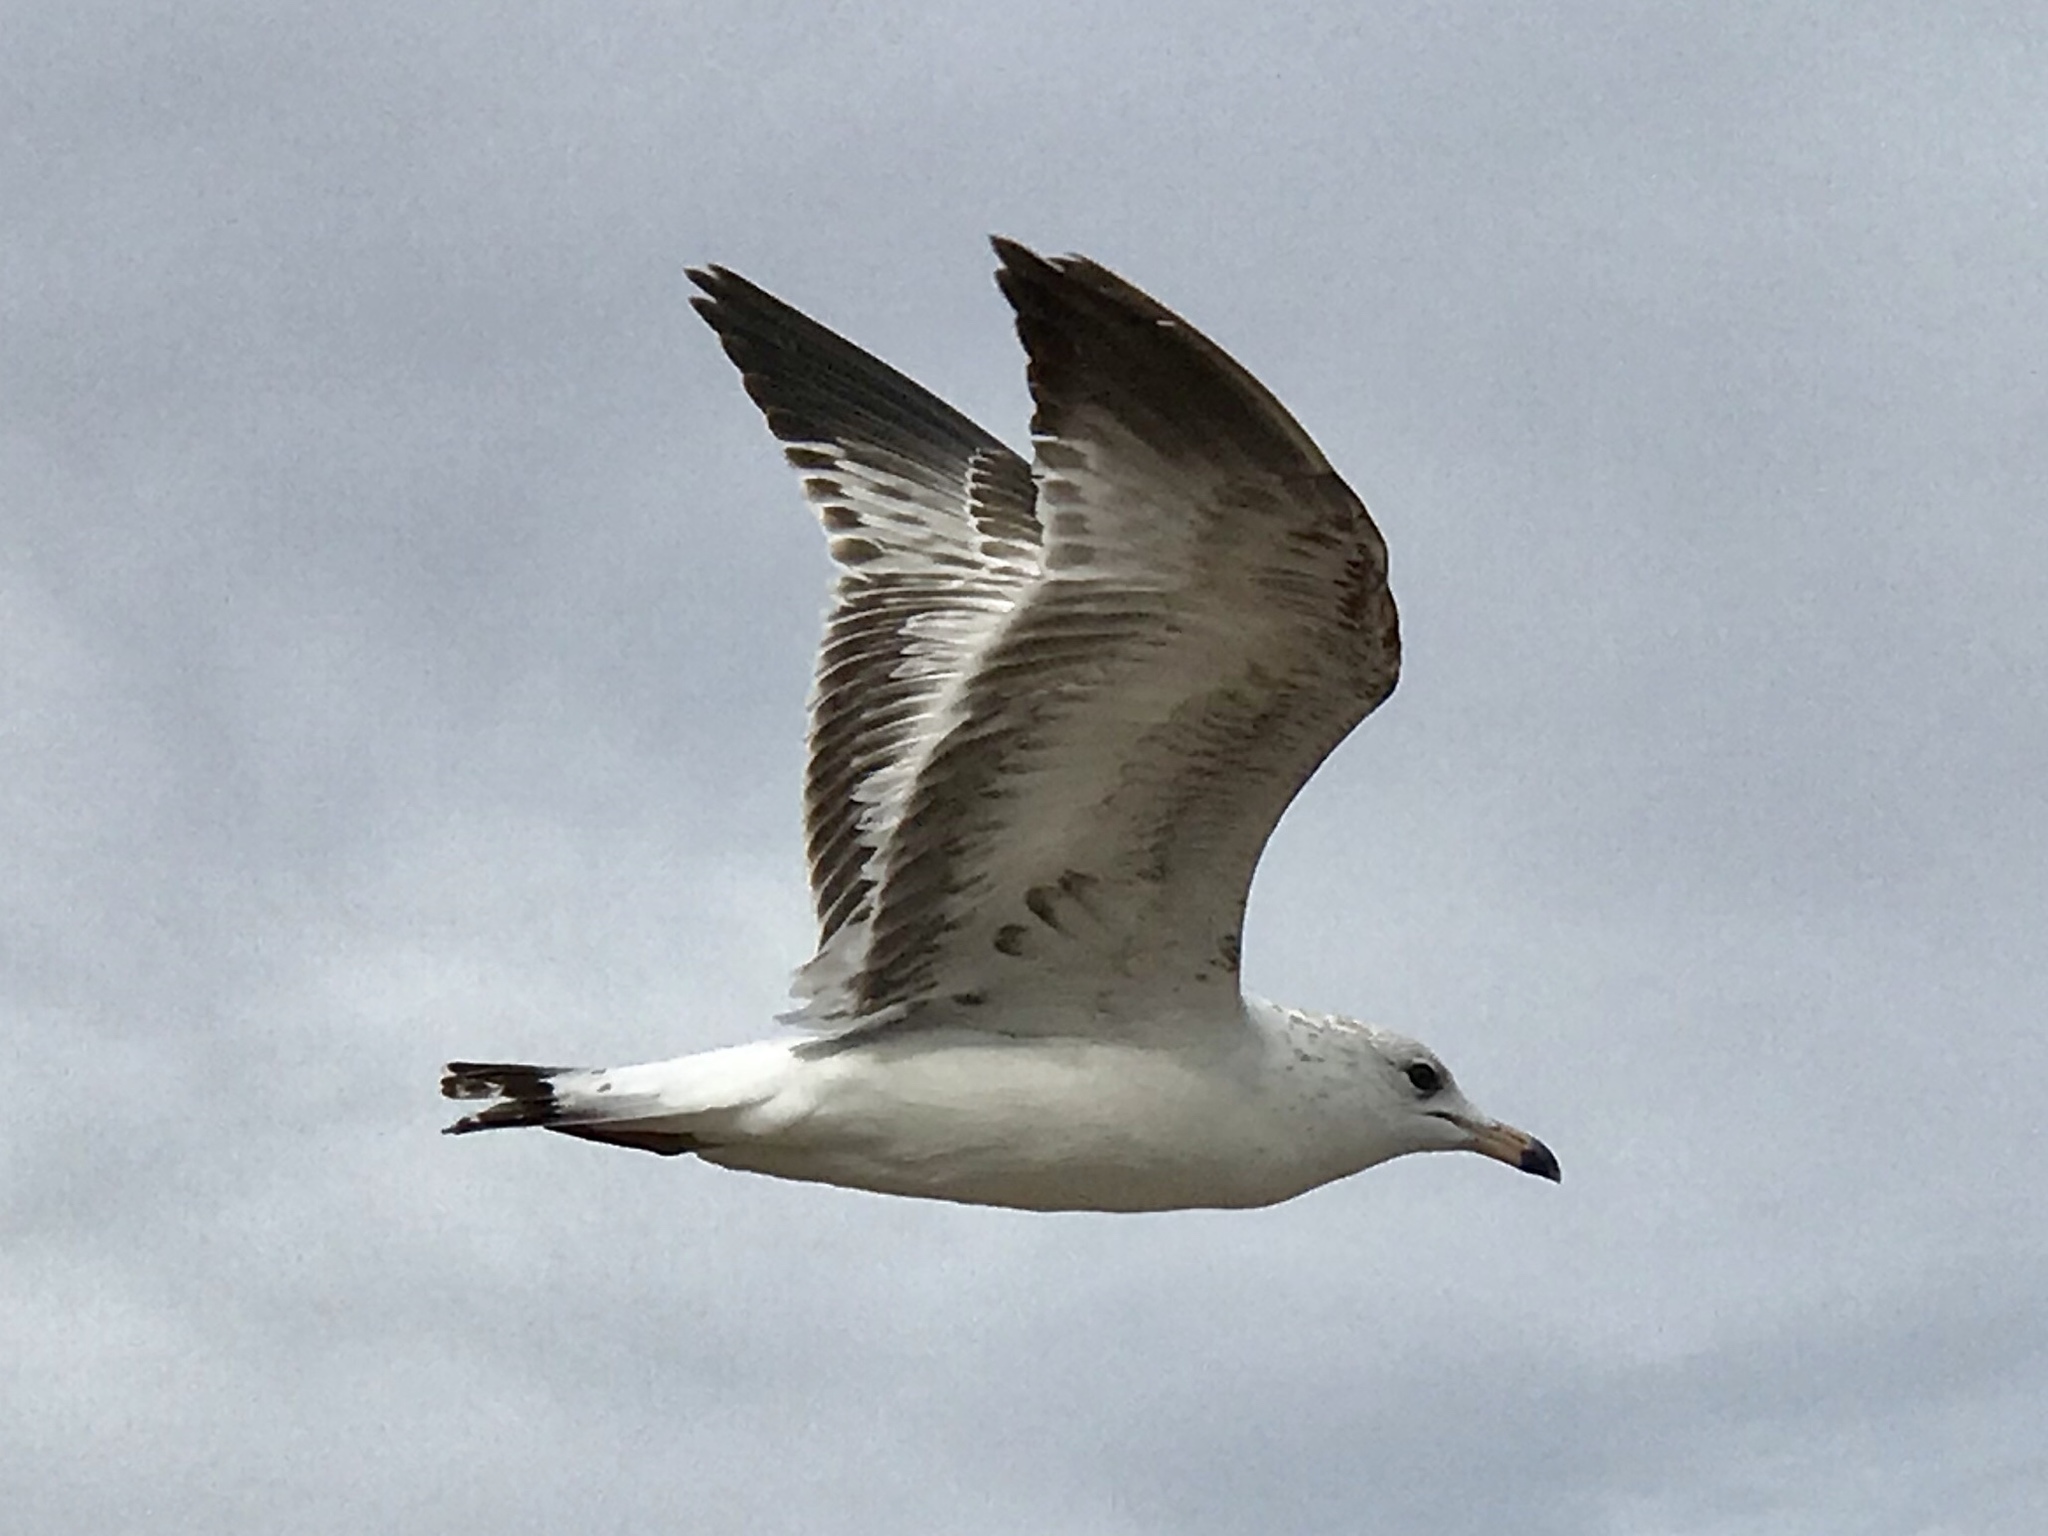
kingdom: Animalia
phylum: Chordata
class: Aves
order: Charadriiformes
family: Laridae
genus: Larus
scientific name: Larus delawarensis
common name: Ring-billed gull
